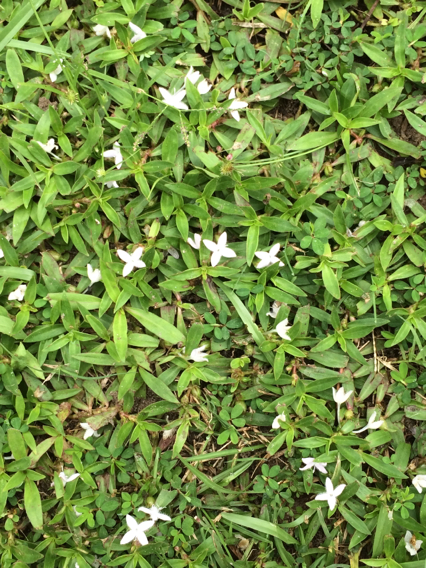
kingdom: Plantae
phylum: Tracheophyta
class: Magnoliopsida
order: Gentianales
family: Rubiaceae
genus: Diodia
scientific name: Diodia virginiana
